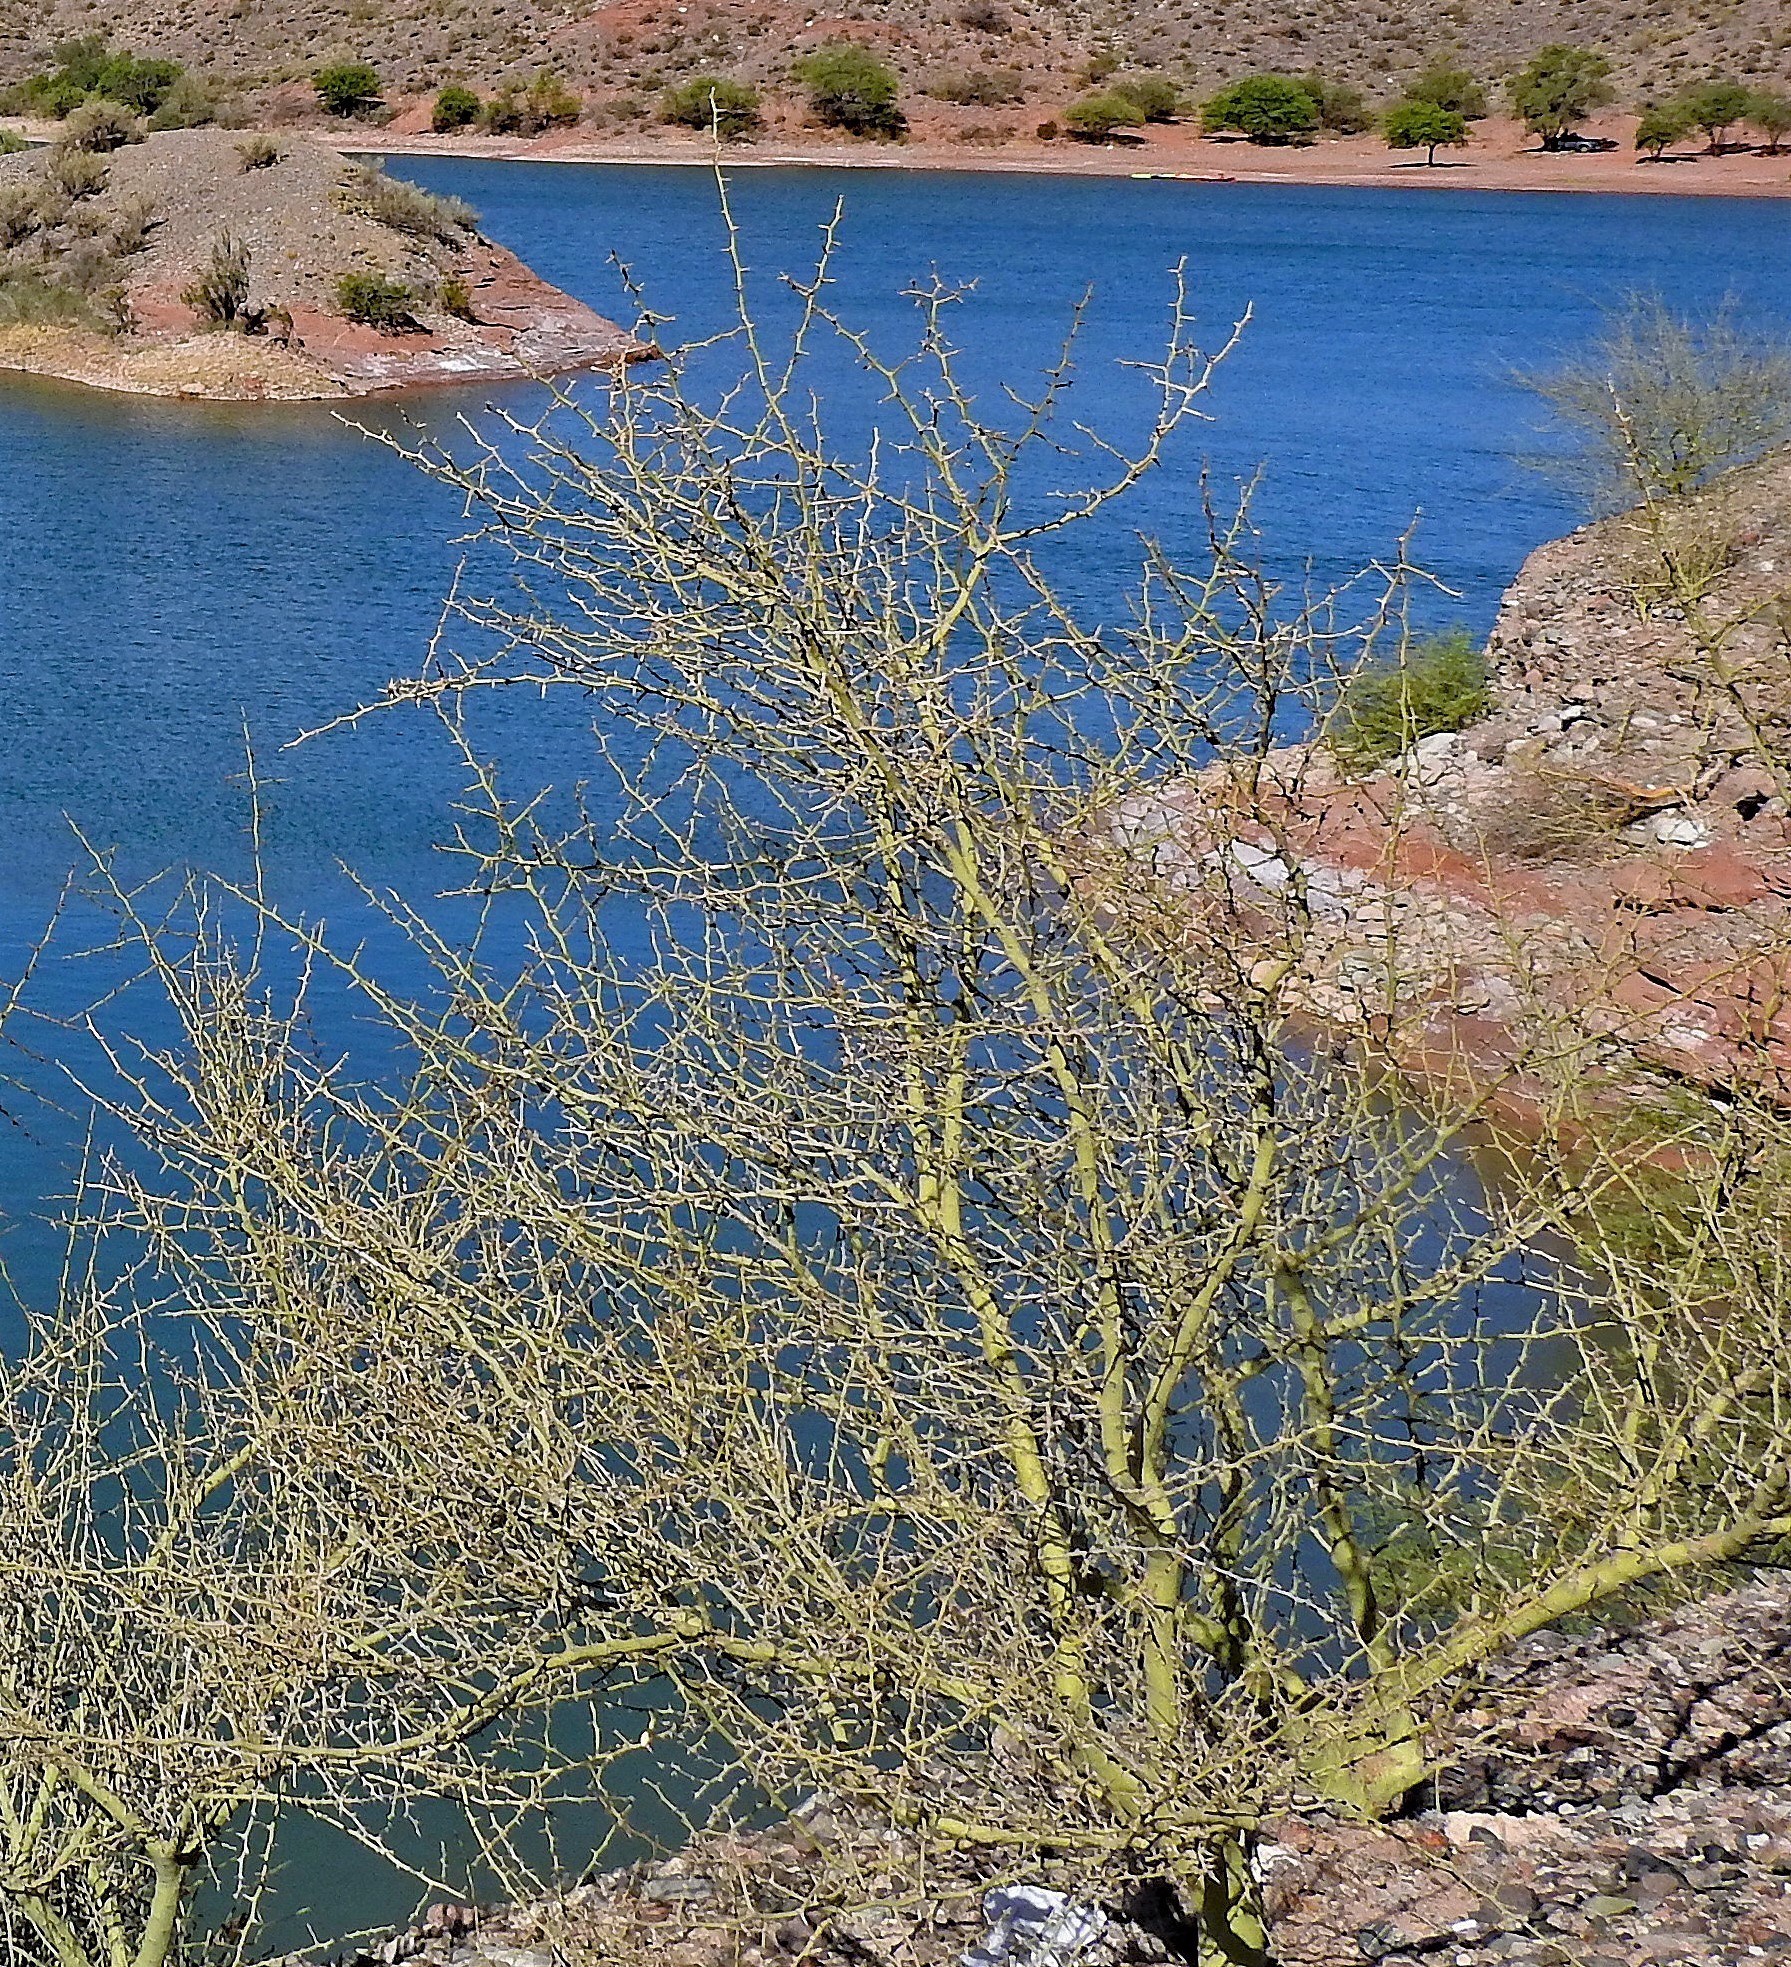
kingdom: Plantae
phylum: Tracheophyta
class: Magnoliopsida
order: Fabales
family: Fabaceae
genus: Parkinsonia
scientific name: Parkinsonia praecox
